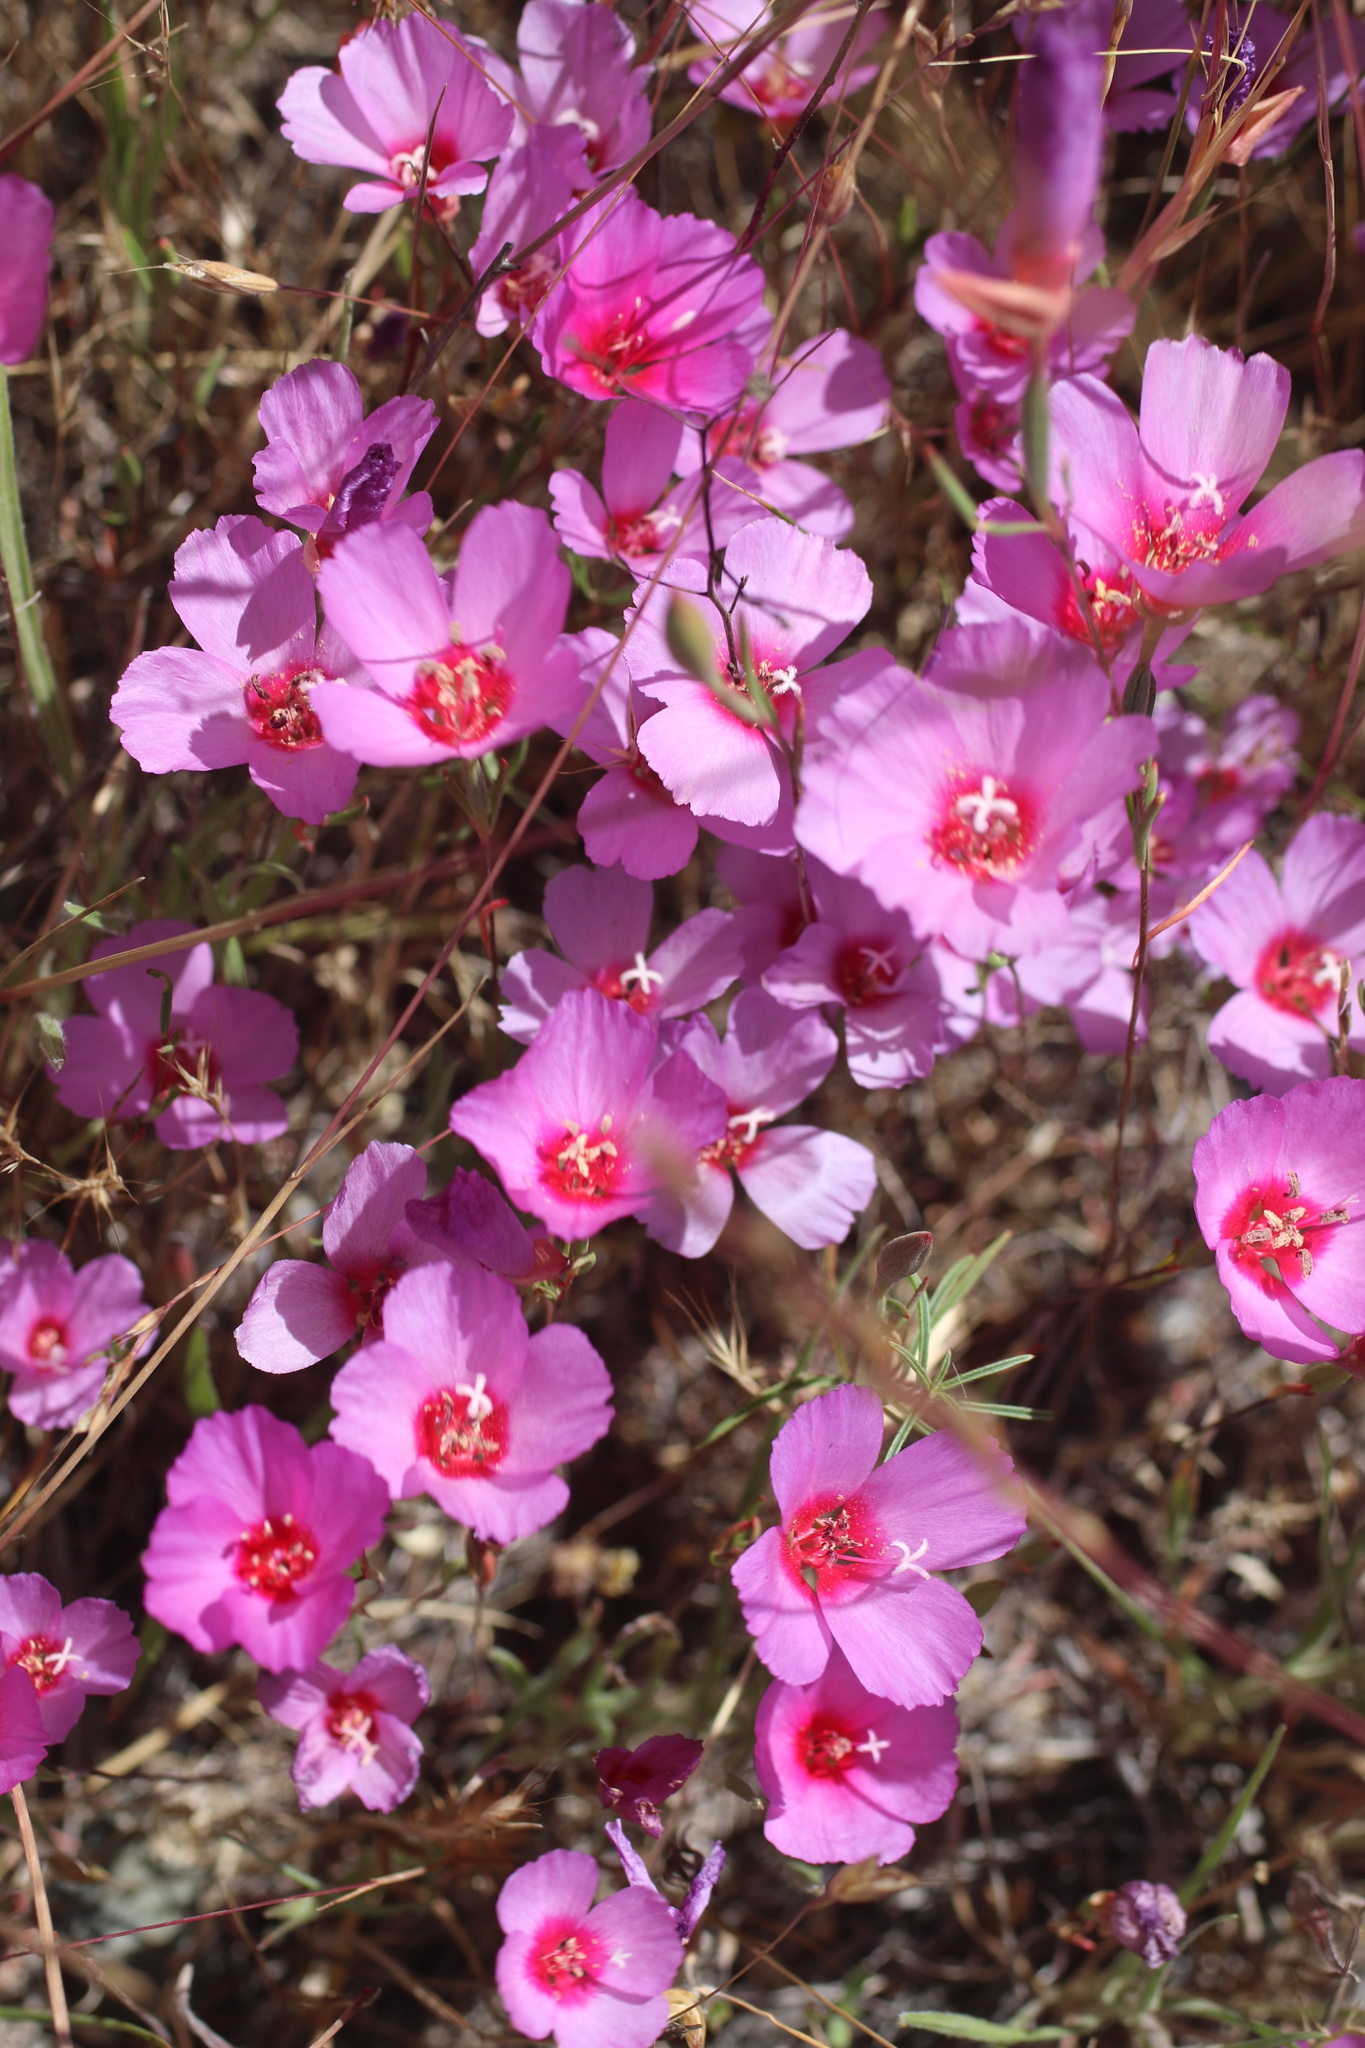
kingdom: Plantae
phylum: Tracheophyta
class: Magnoliopsida
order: Myrtales
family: Onagraceae
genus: Clarkia
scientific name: Clarkia rubicunda
